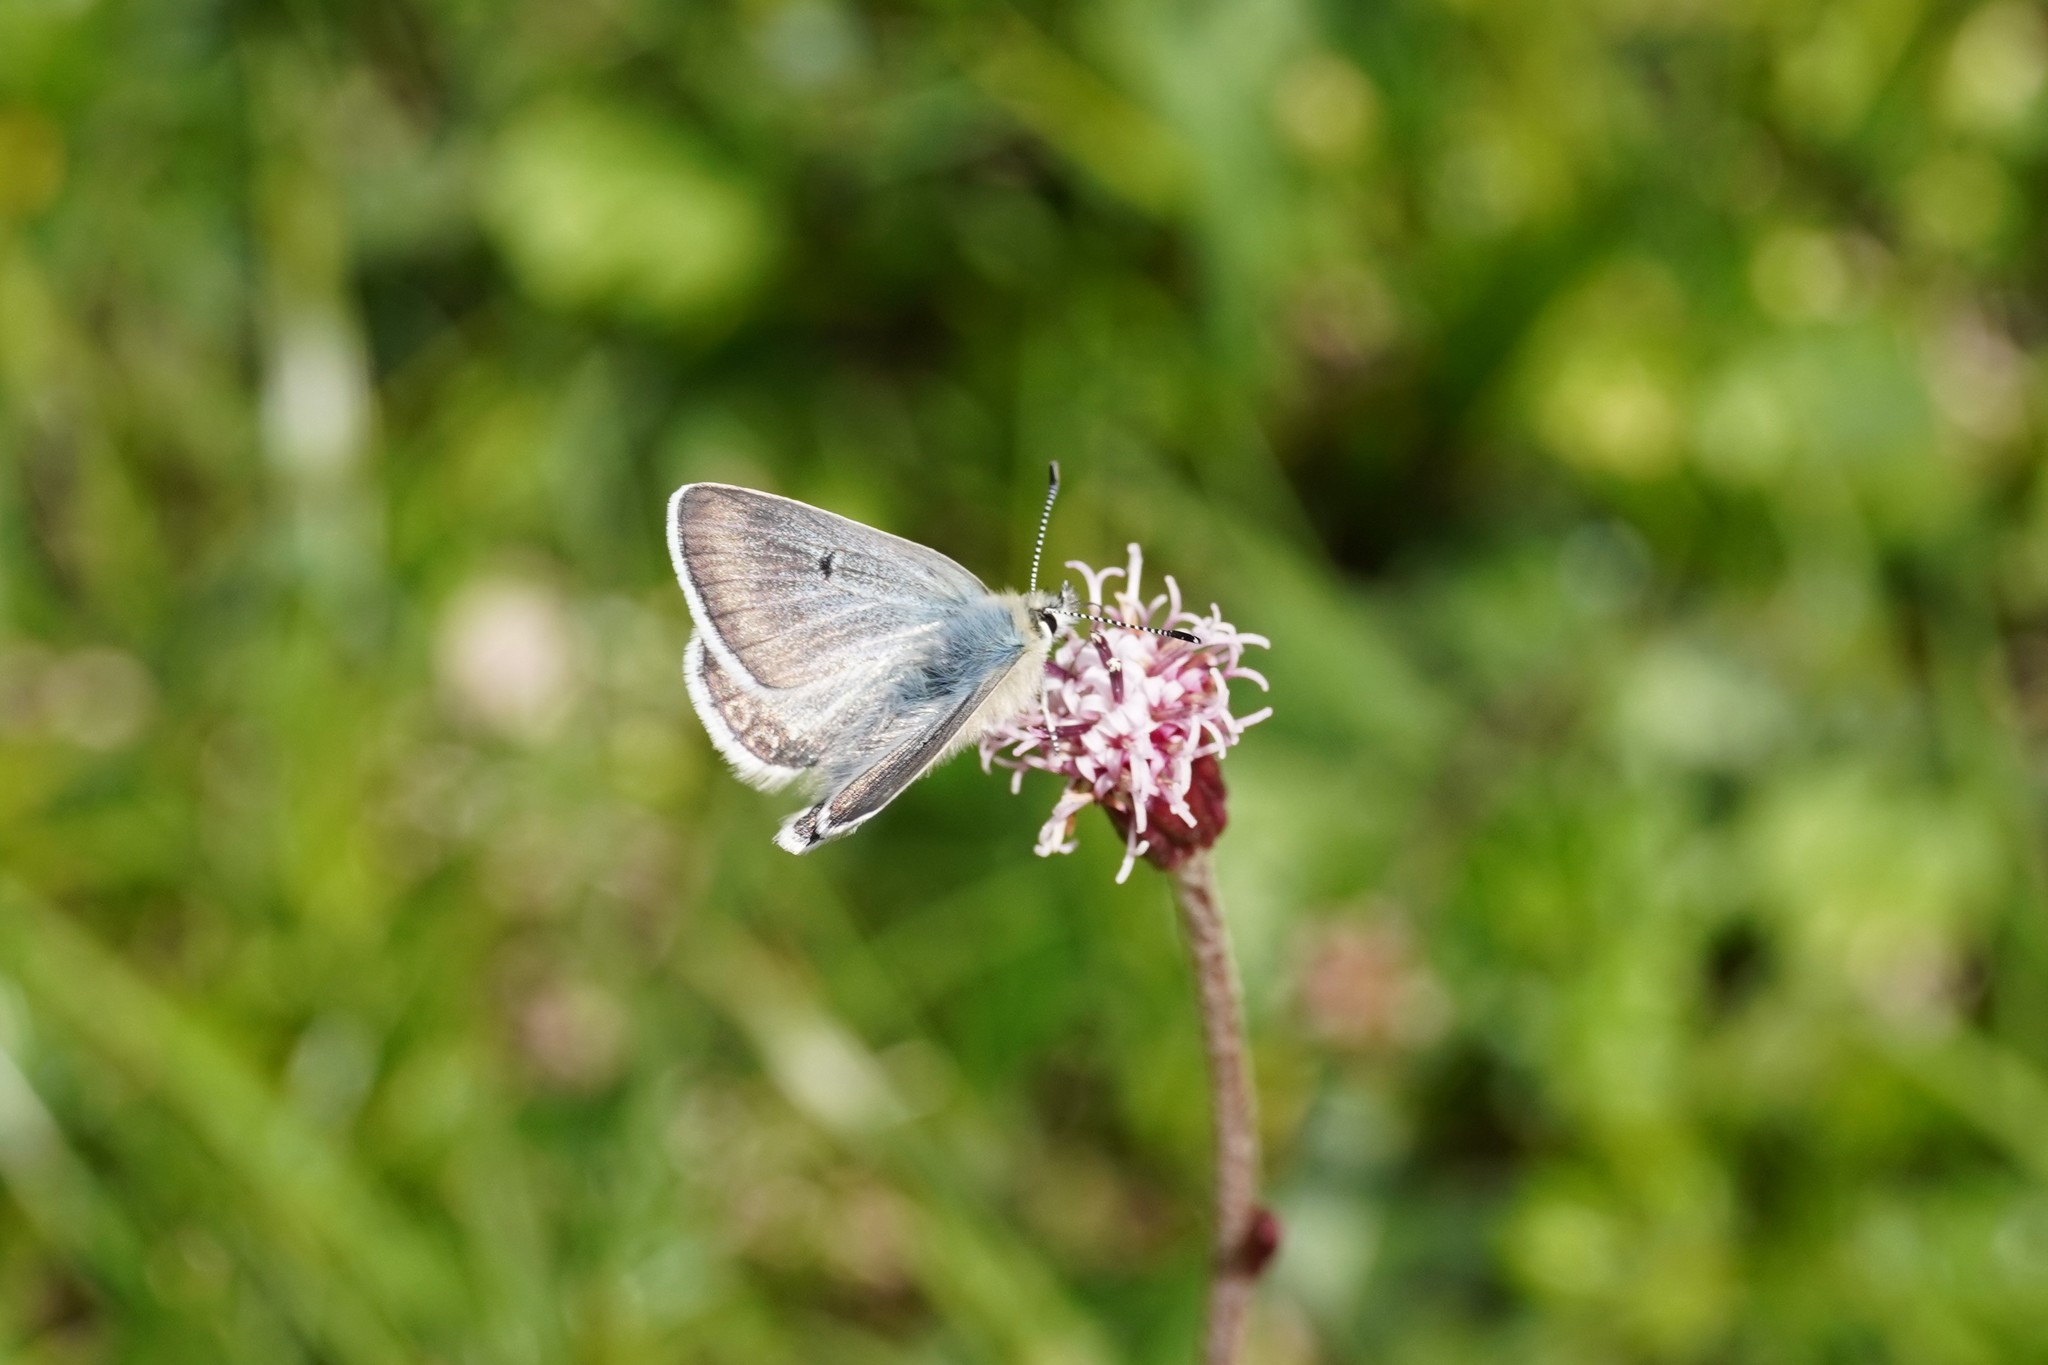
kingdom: Animalia
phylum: Arthropoda
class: Insecta
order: Lepidoptera
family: Lycaenidae
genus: Agriades
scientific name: Agriades glandon
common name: Glandon blue
